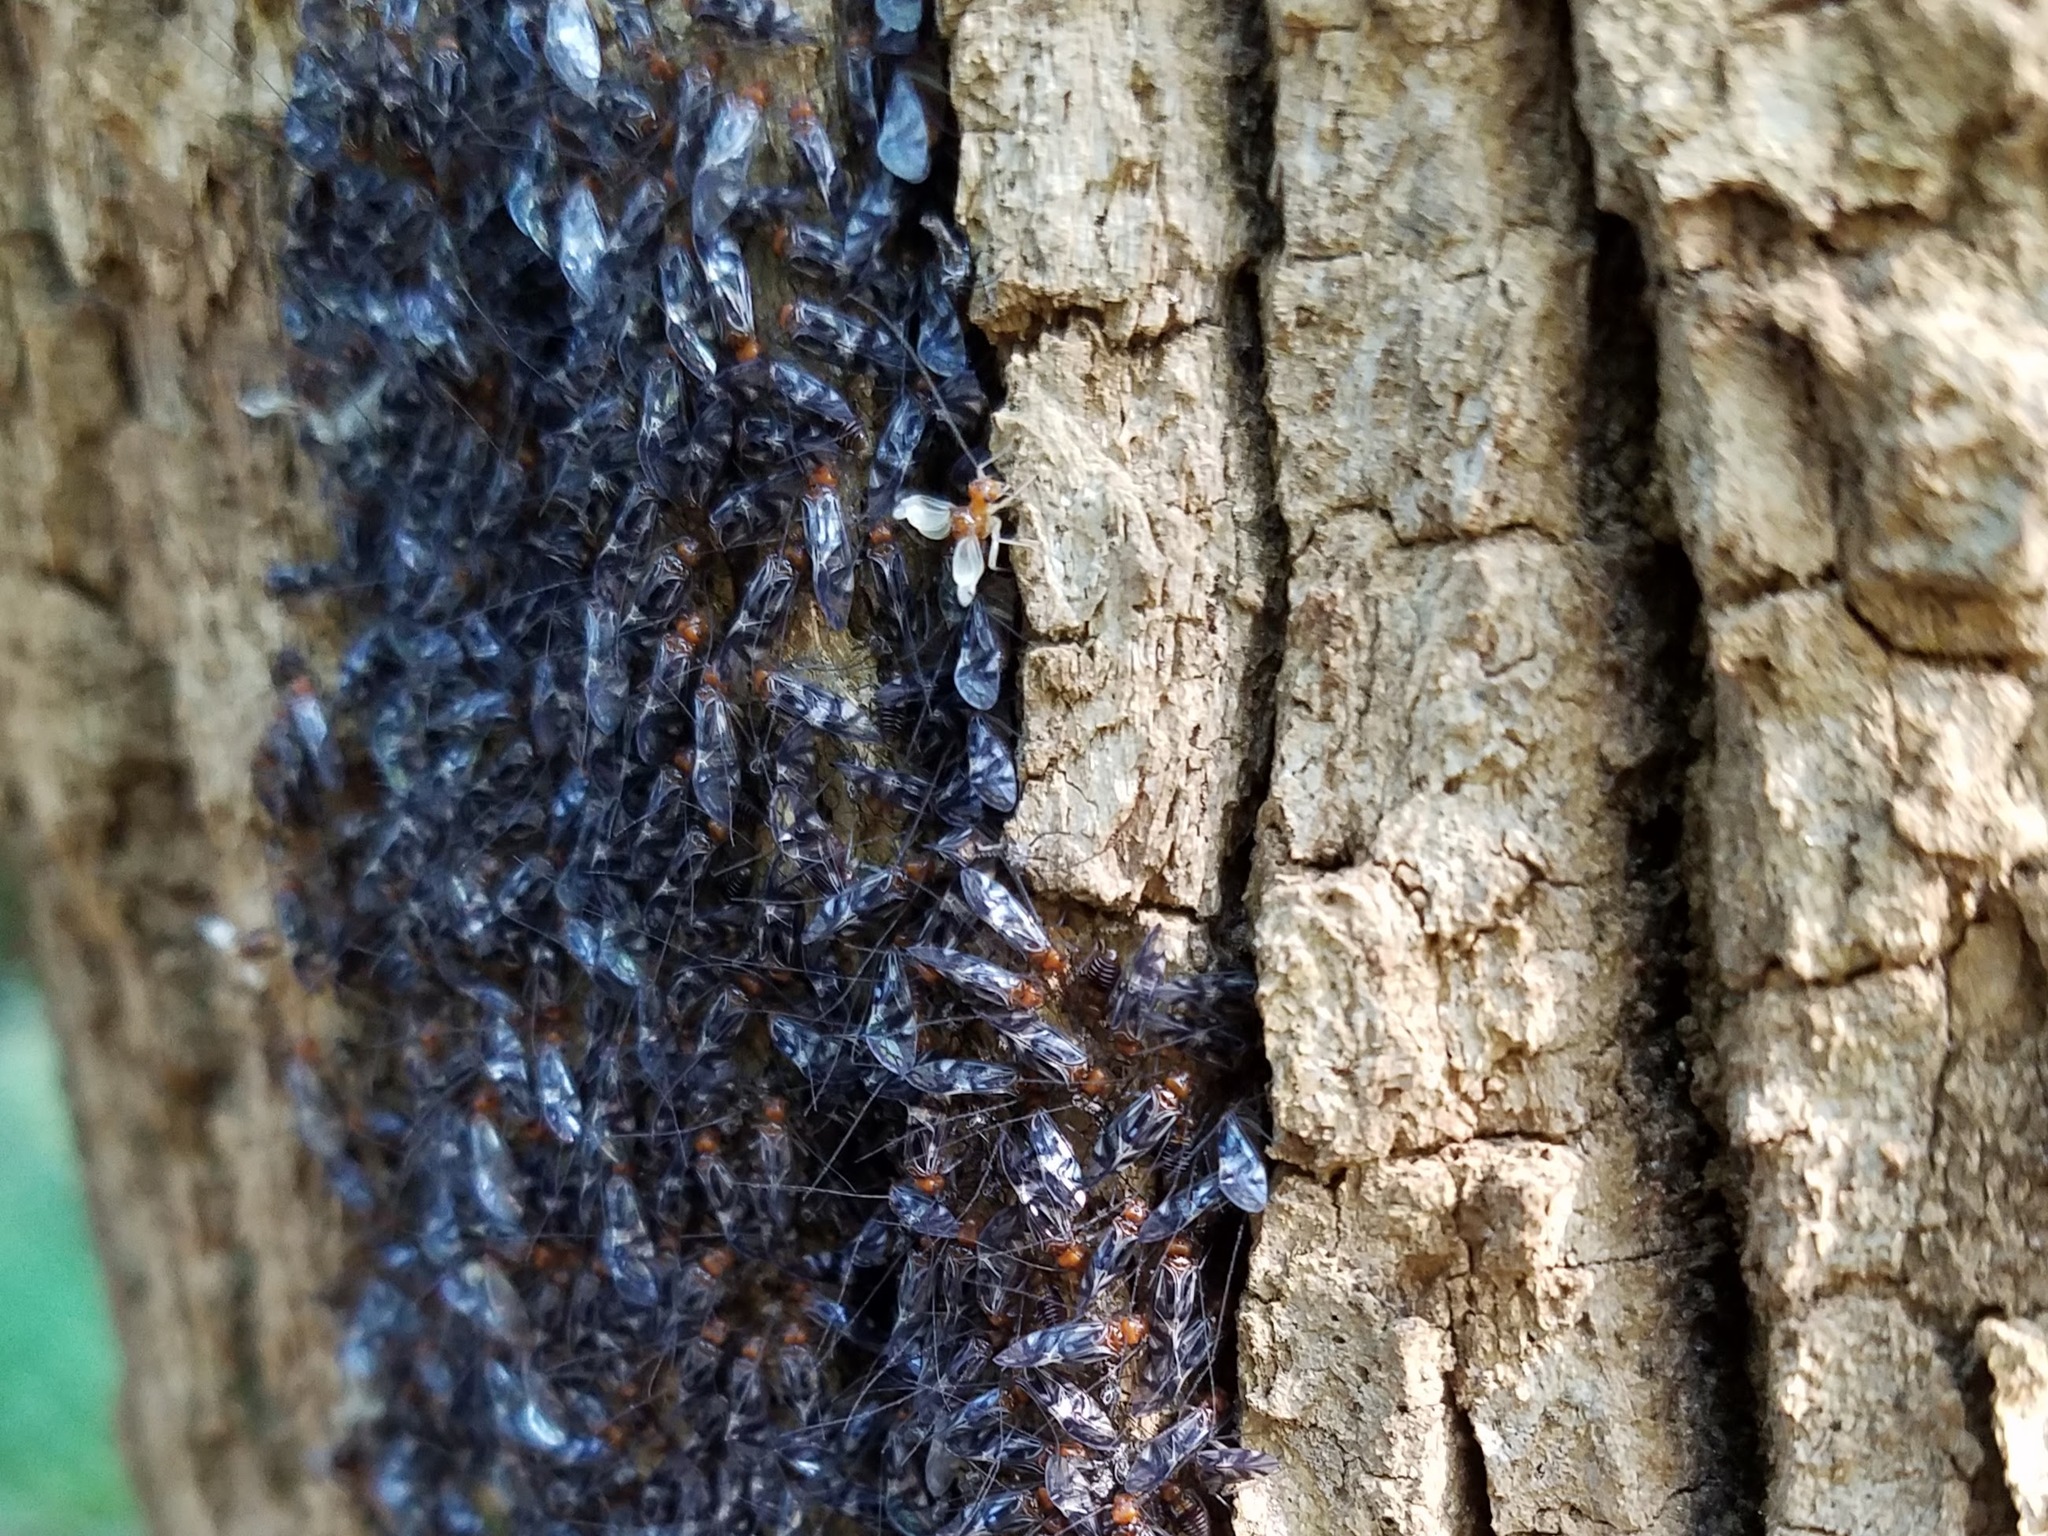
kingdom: Animalia
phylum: Arthropoda
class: Insecta
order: Psocodea
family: Psocidae
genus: Cerastipsocus
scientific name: Cerastipsocus trifasciatus
